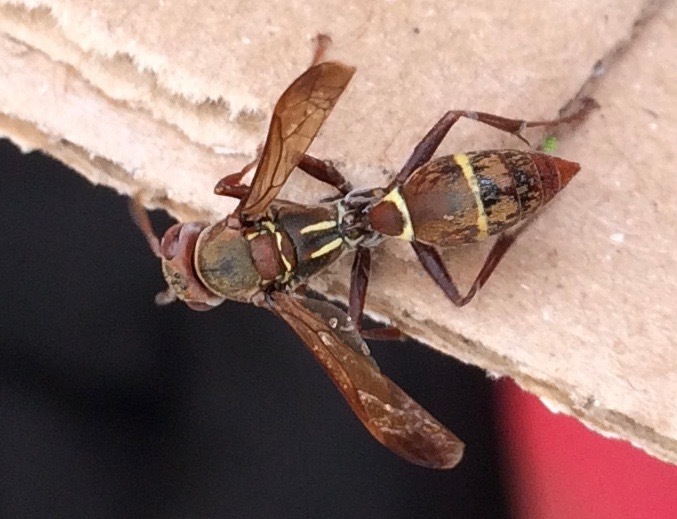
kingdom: Animalia
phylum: Arthropoda
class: Insecta
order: Hymenoptera
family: Eumenidae
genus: Polistes
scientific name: Polistes
